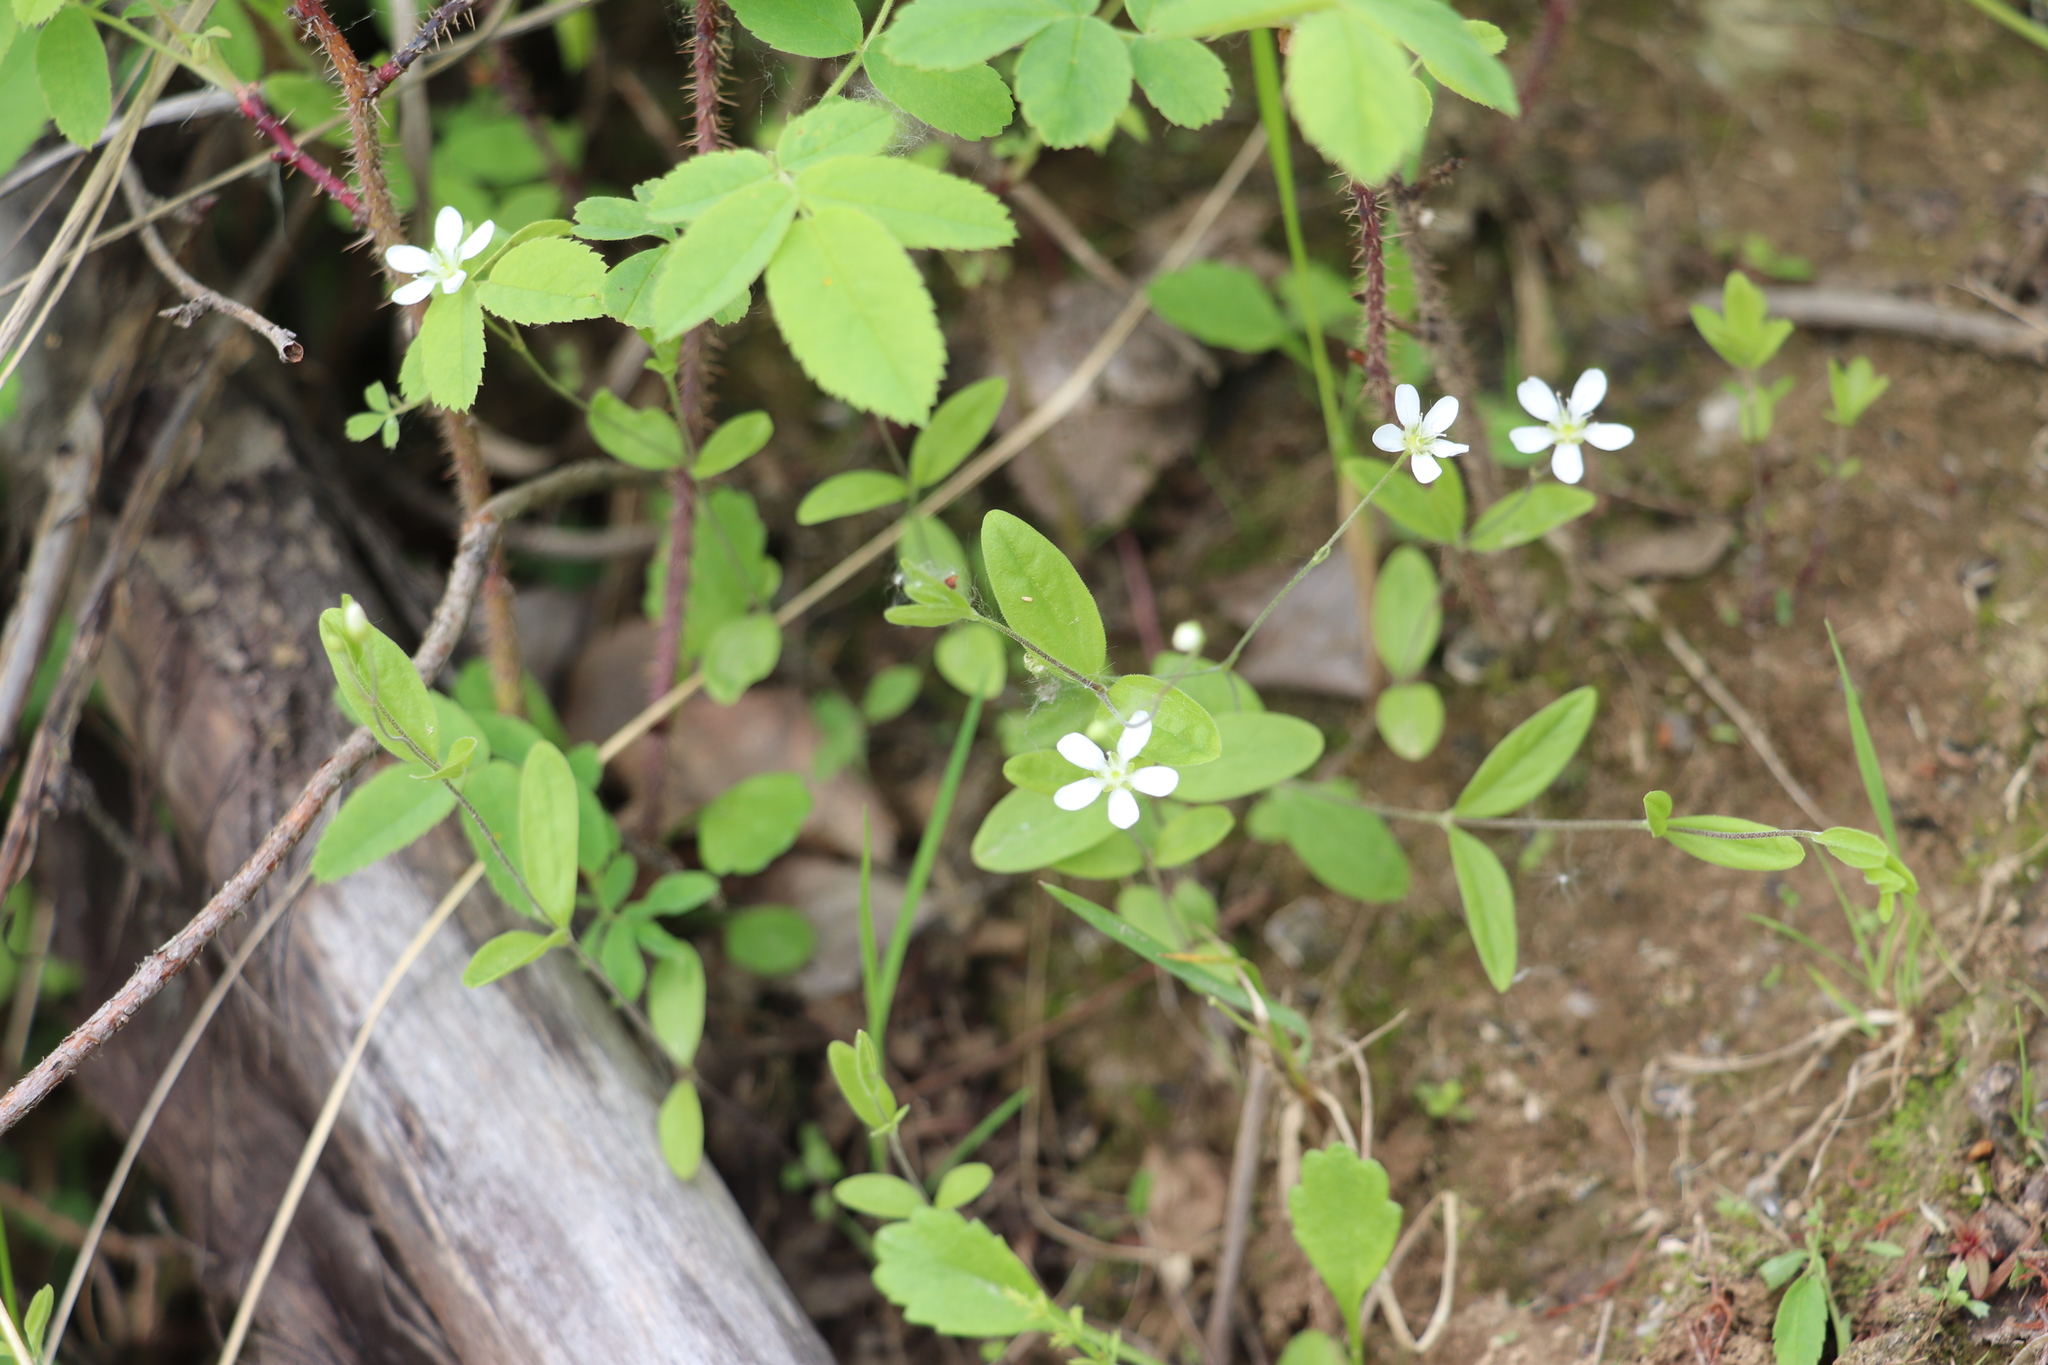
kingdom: Plantae
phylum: Tracheophyta
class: Magnoliopsida
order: Caryophyllales
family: Caryophyllaceae
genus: Moehringia
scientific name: Moehringia lateriflora
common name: Blunt-leaved sandwort
